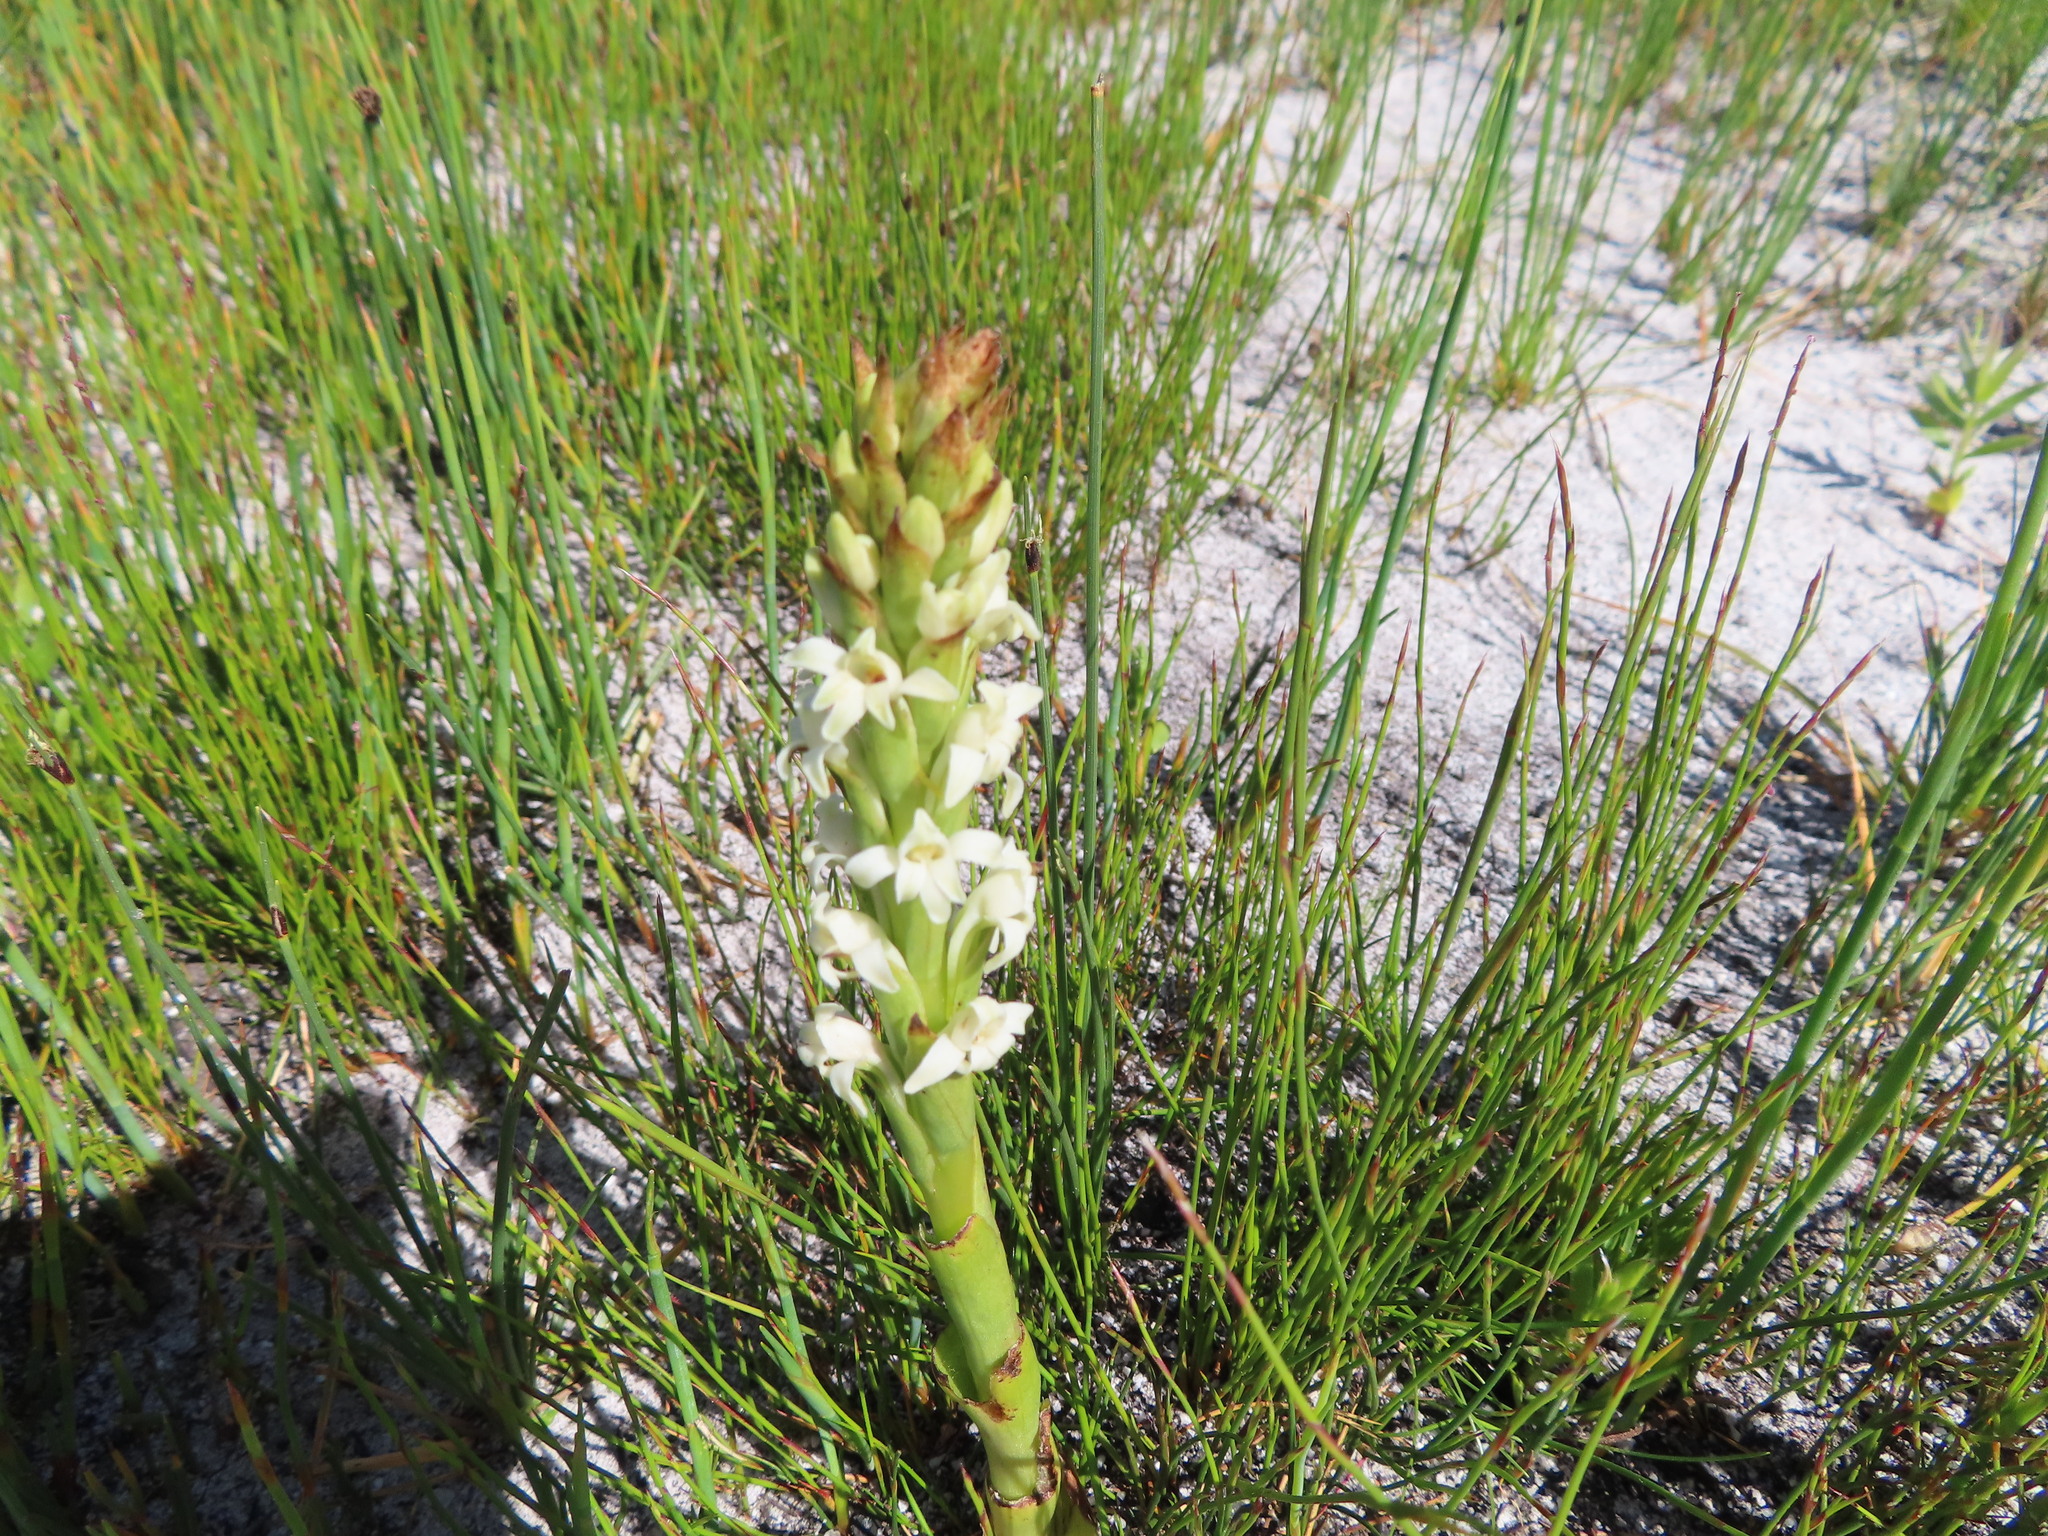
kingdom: Plantae
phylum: Tracheophyta
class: Liliopsida
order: Asparagales
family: Orchidaceae
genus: Satyrium
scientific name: Satyrium stenopetalum
